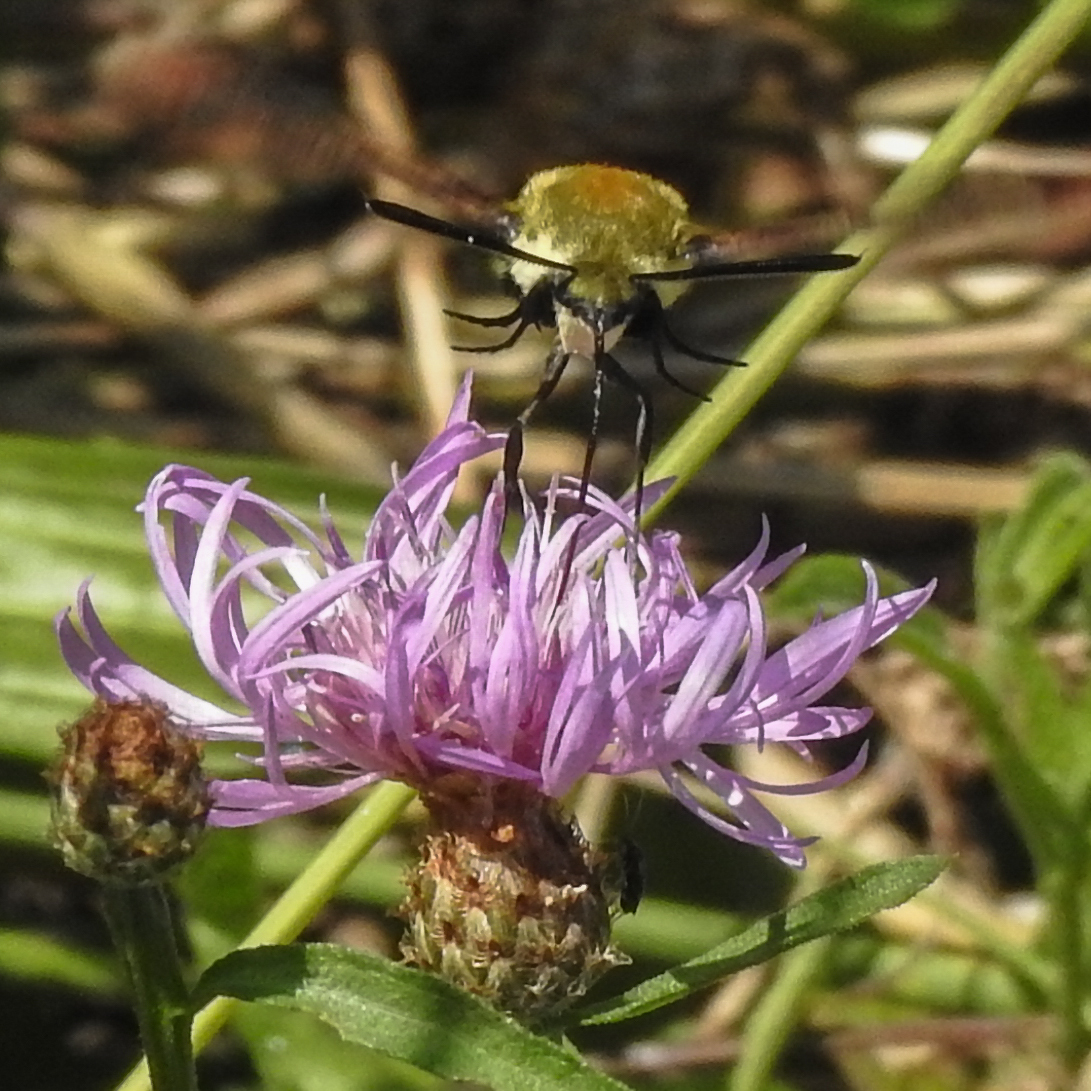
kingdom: Animalia
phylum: Arthropoda
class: Insecta
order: Lepidoptera
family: Sphingidae
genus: Hemaris
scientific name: Hemaris diffinis
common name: Bumblebee moth
